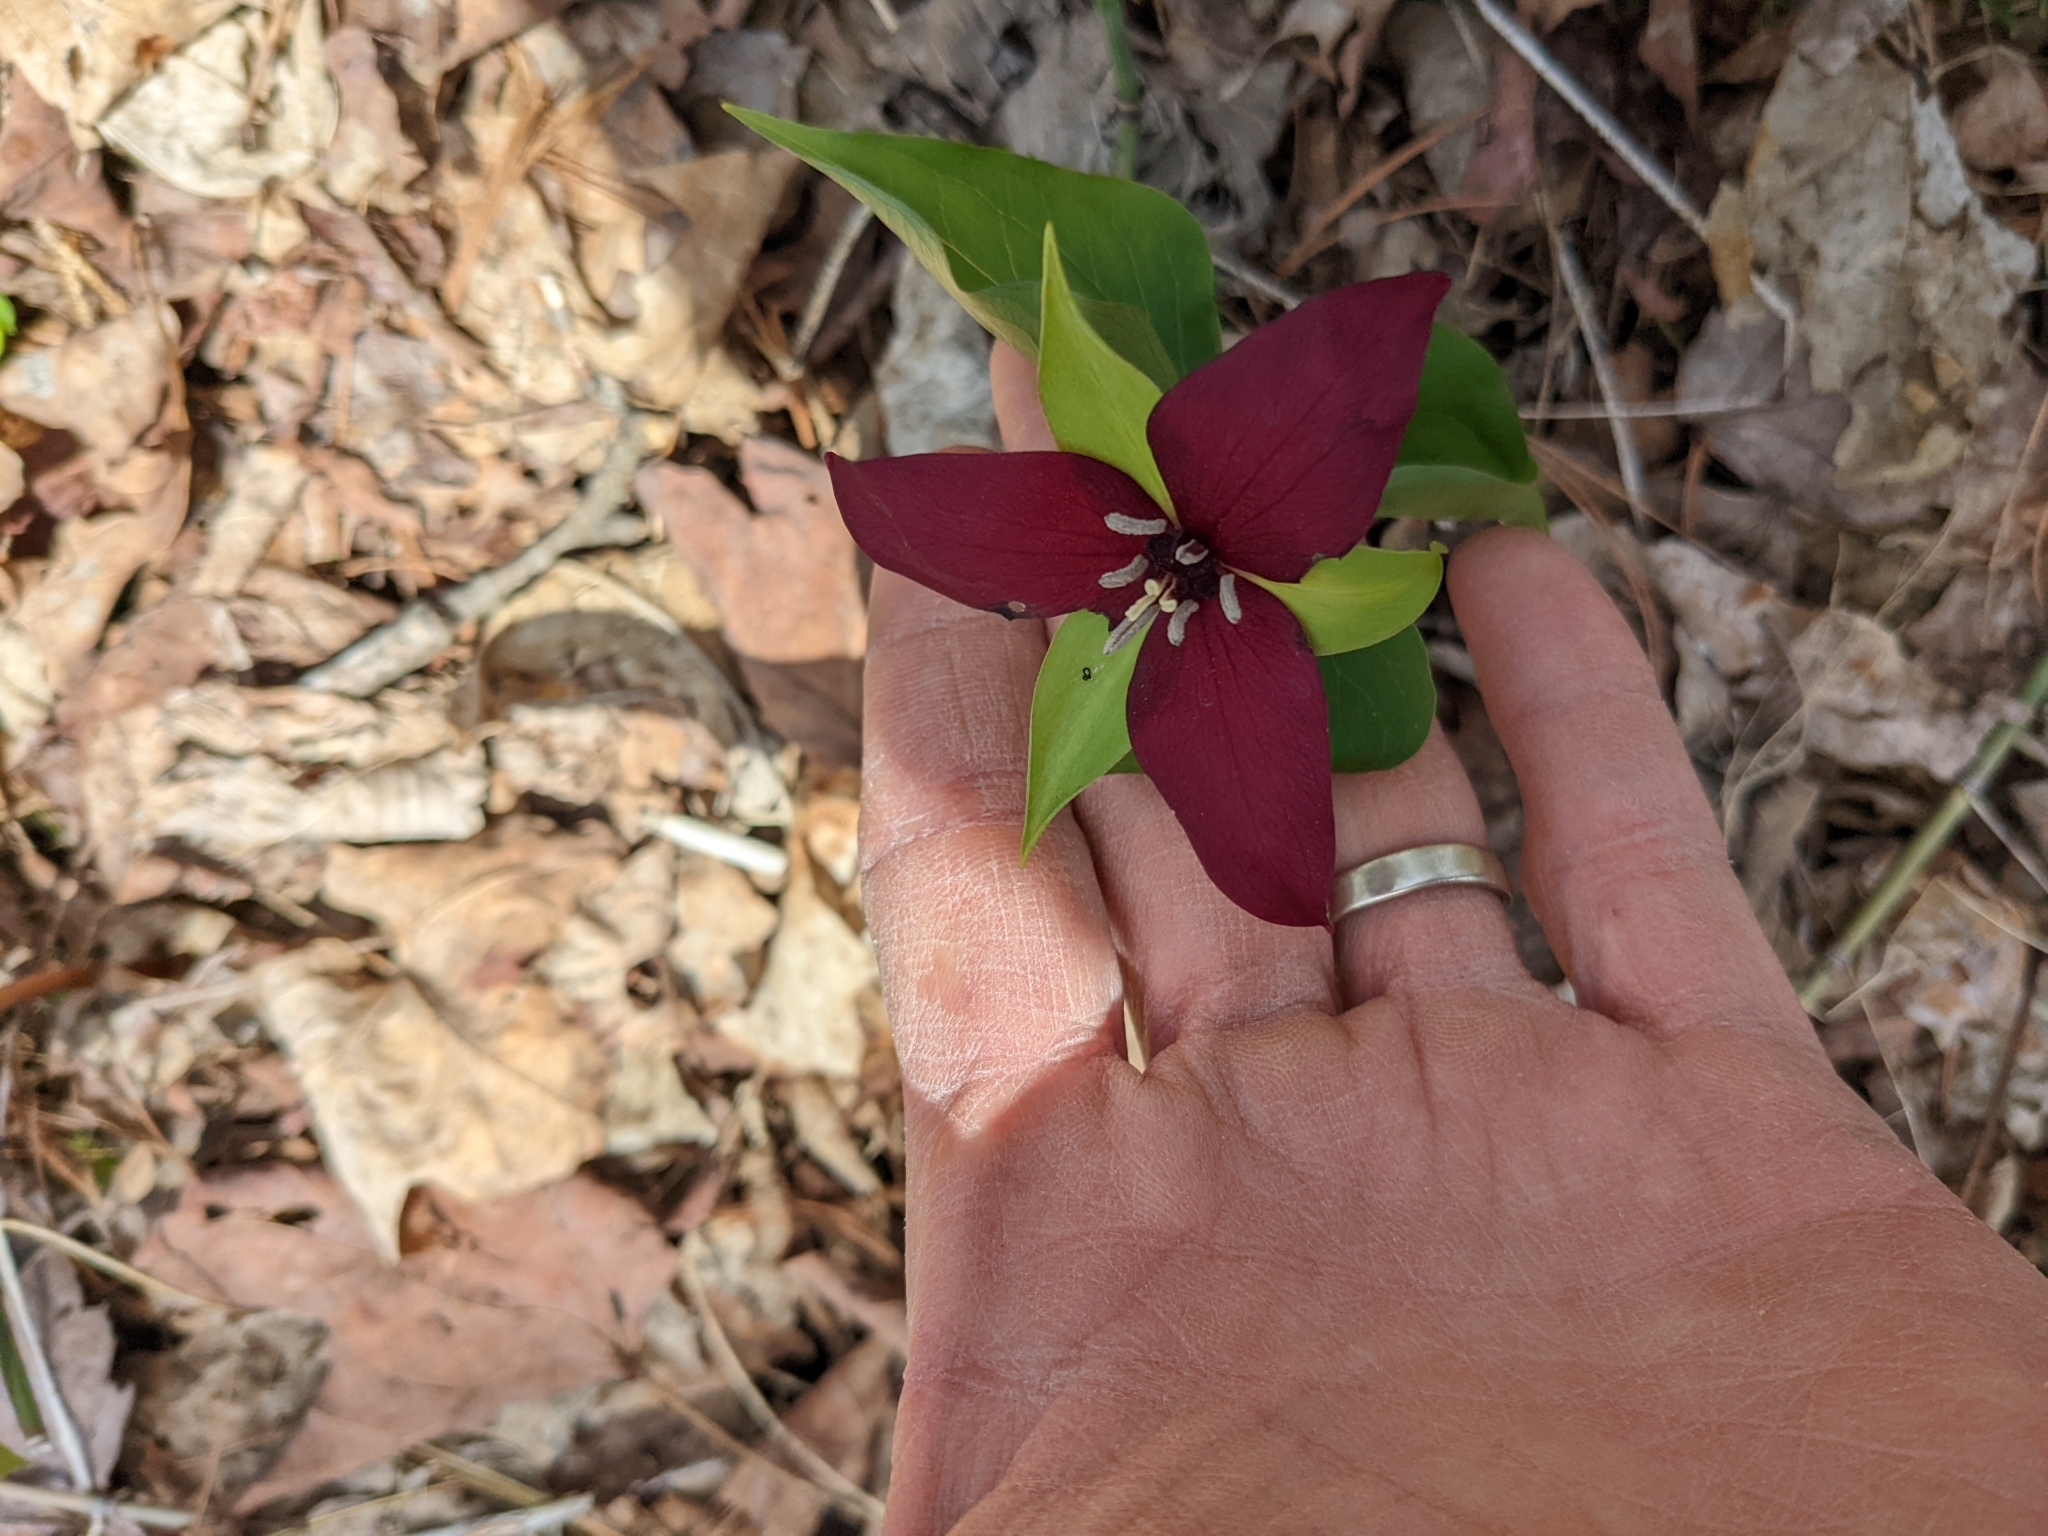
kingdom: Plantae
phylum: Tracheophyta
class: Liliopsida
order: Liliales
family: Melanthiaceae
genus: Trillium
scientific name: Trillium erectum
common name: Purple trillium
